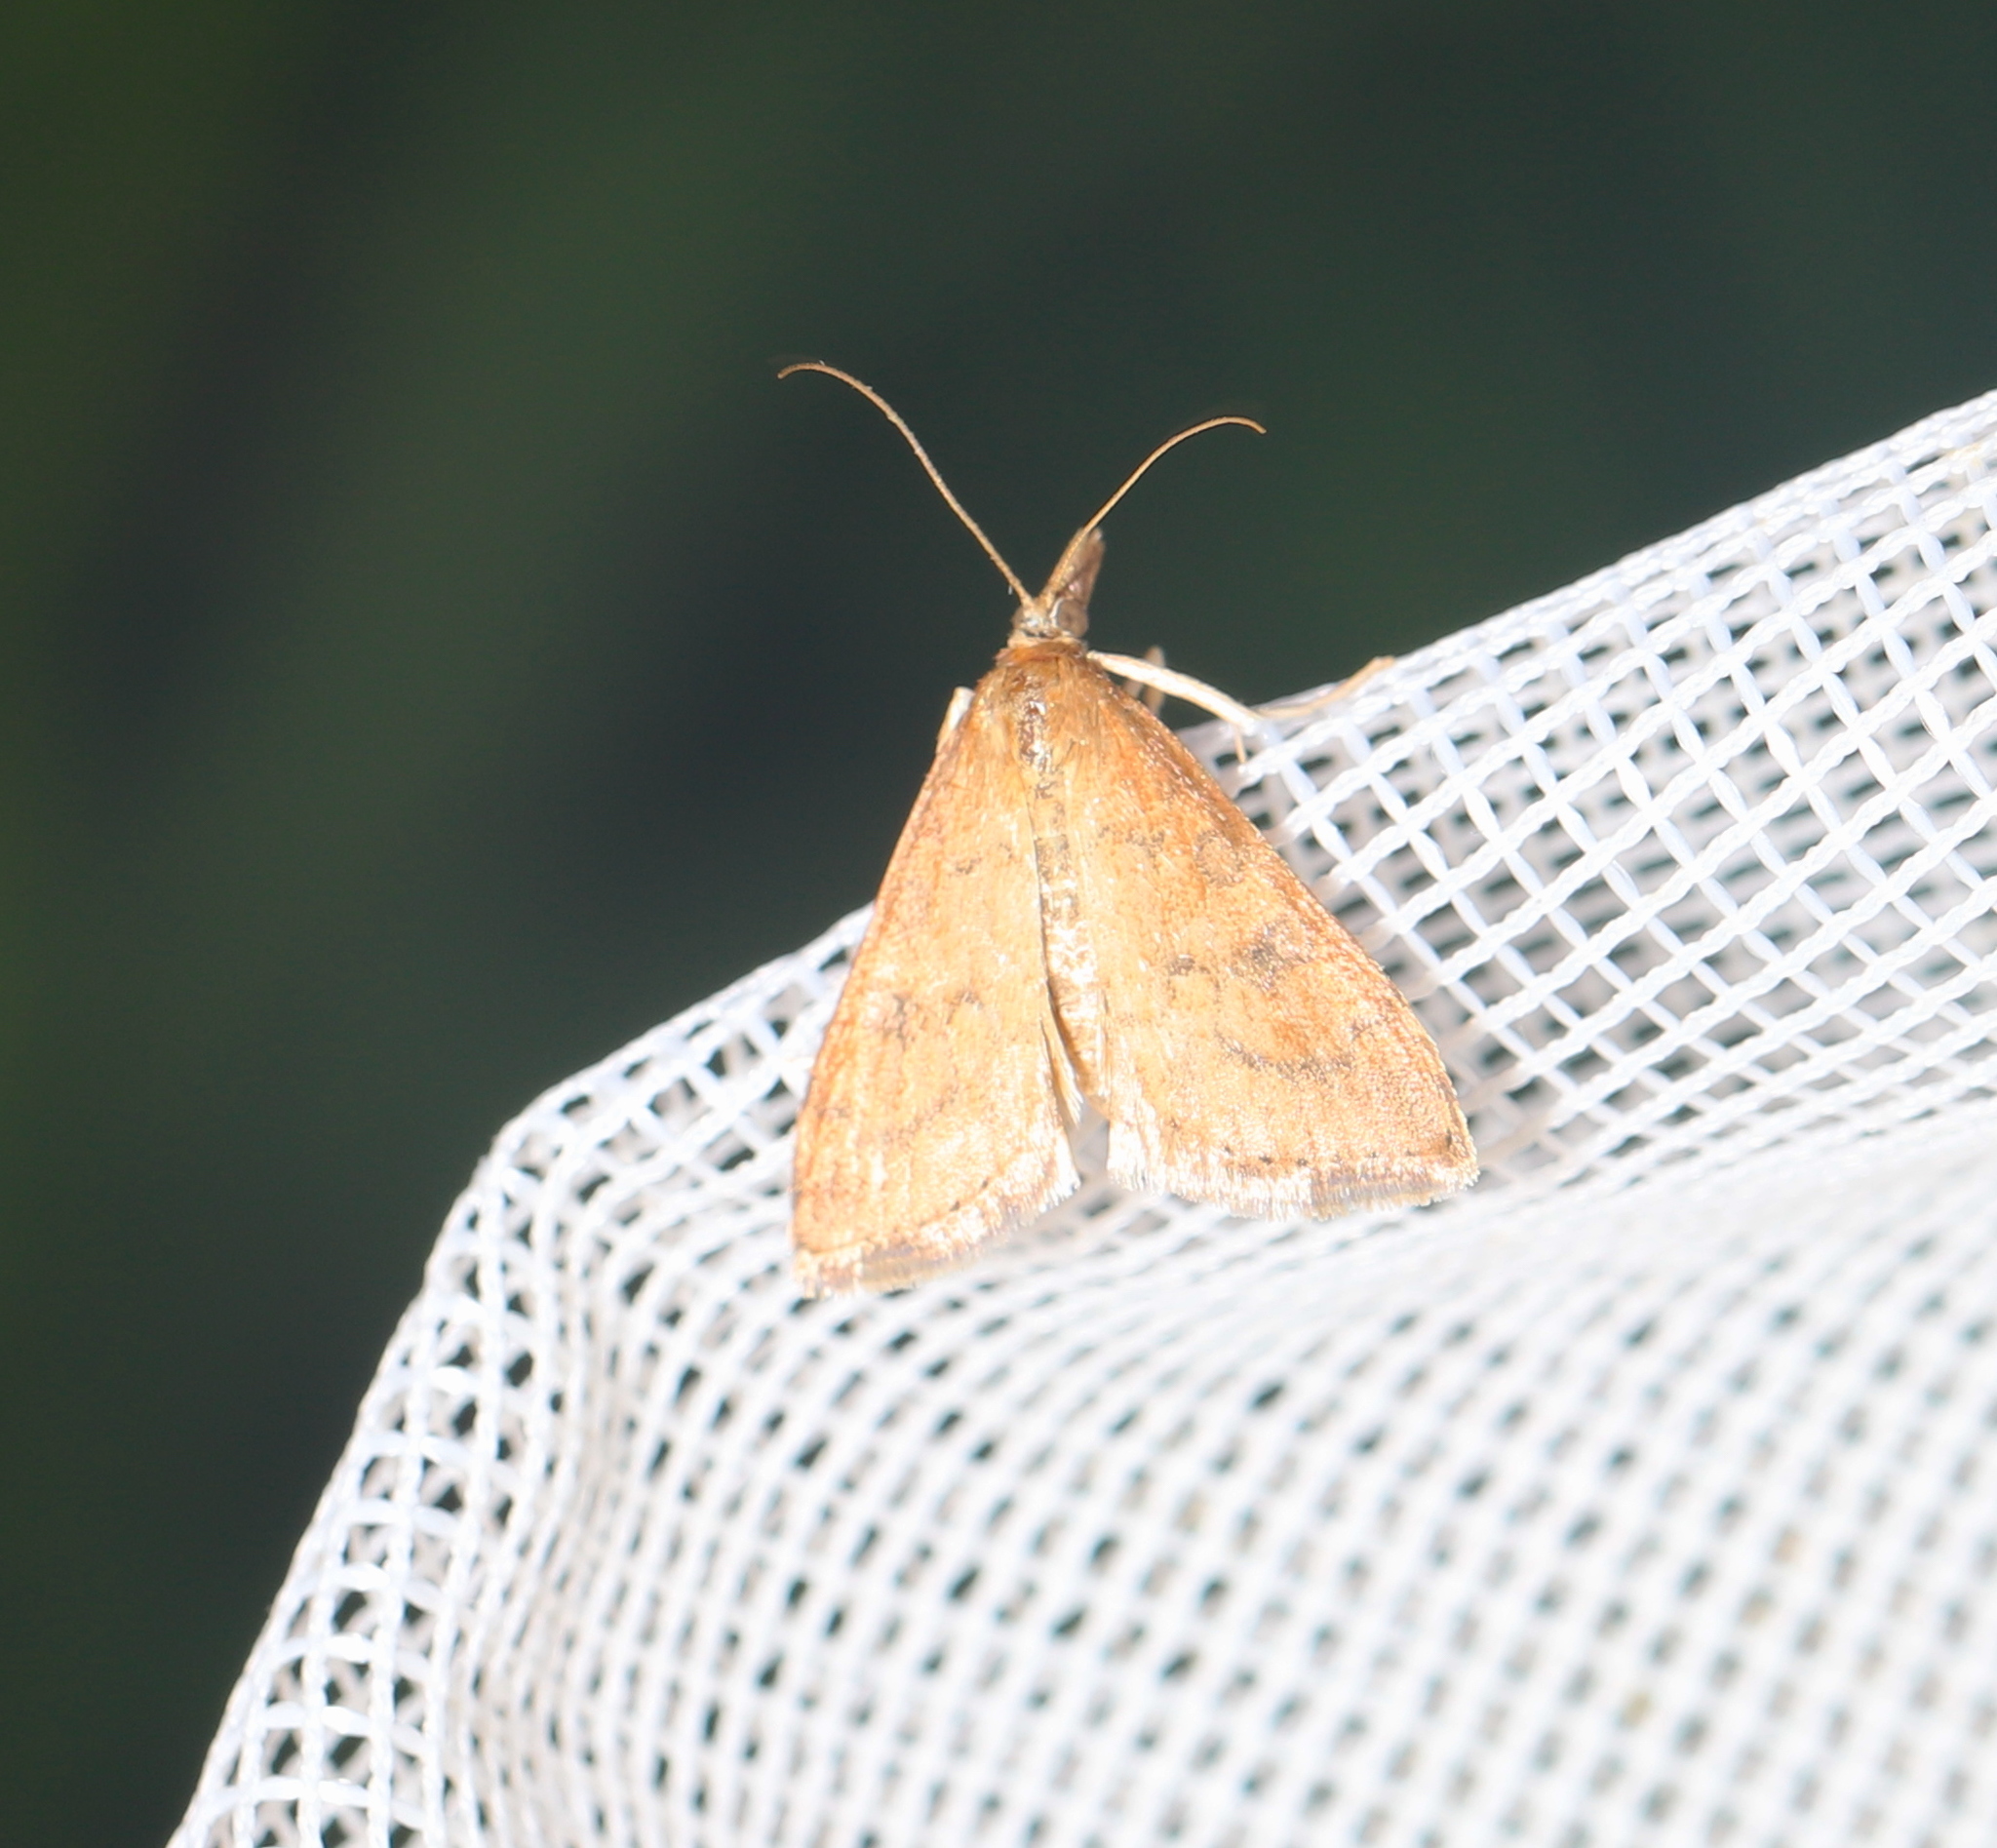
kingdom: Animalia
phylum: Arthropoda
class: Insecta
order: Lepidoptera
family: Crambidae
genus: Udea
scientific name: Udea rubigalis
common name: Celery leaftier moth
